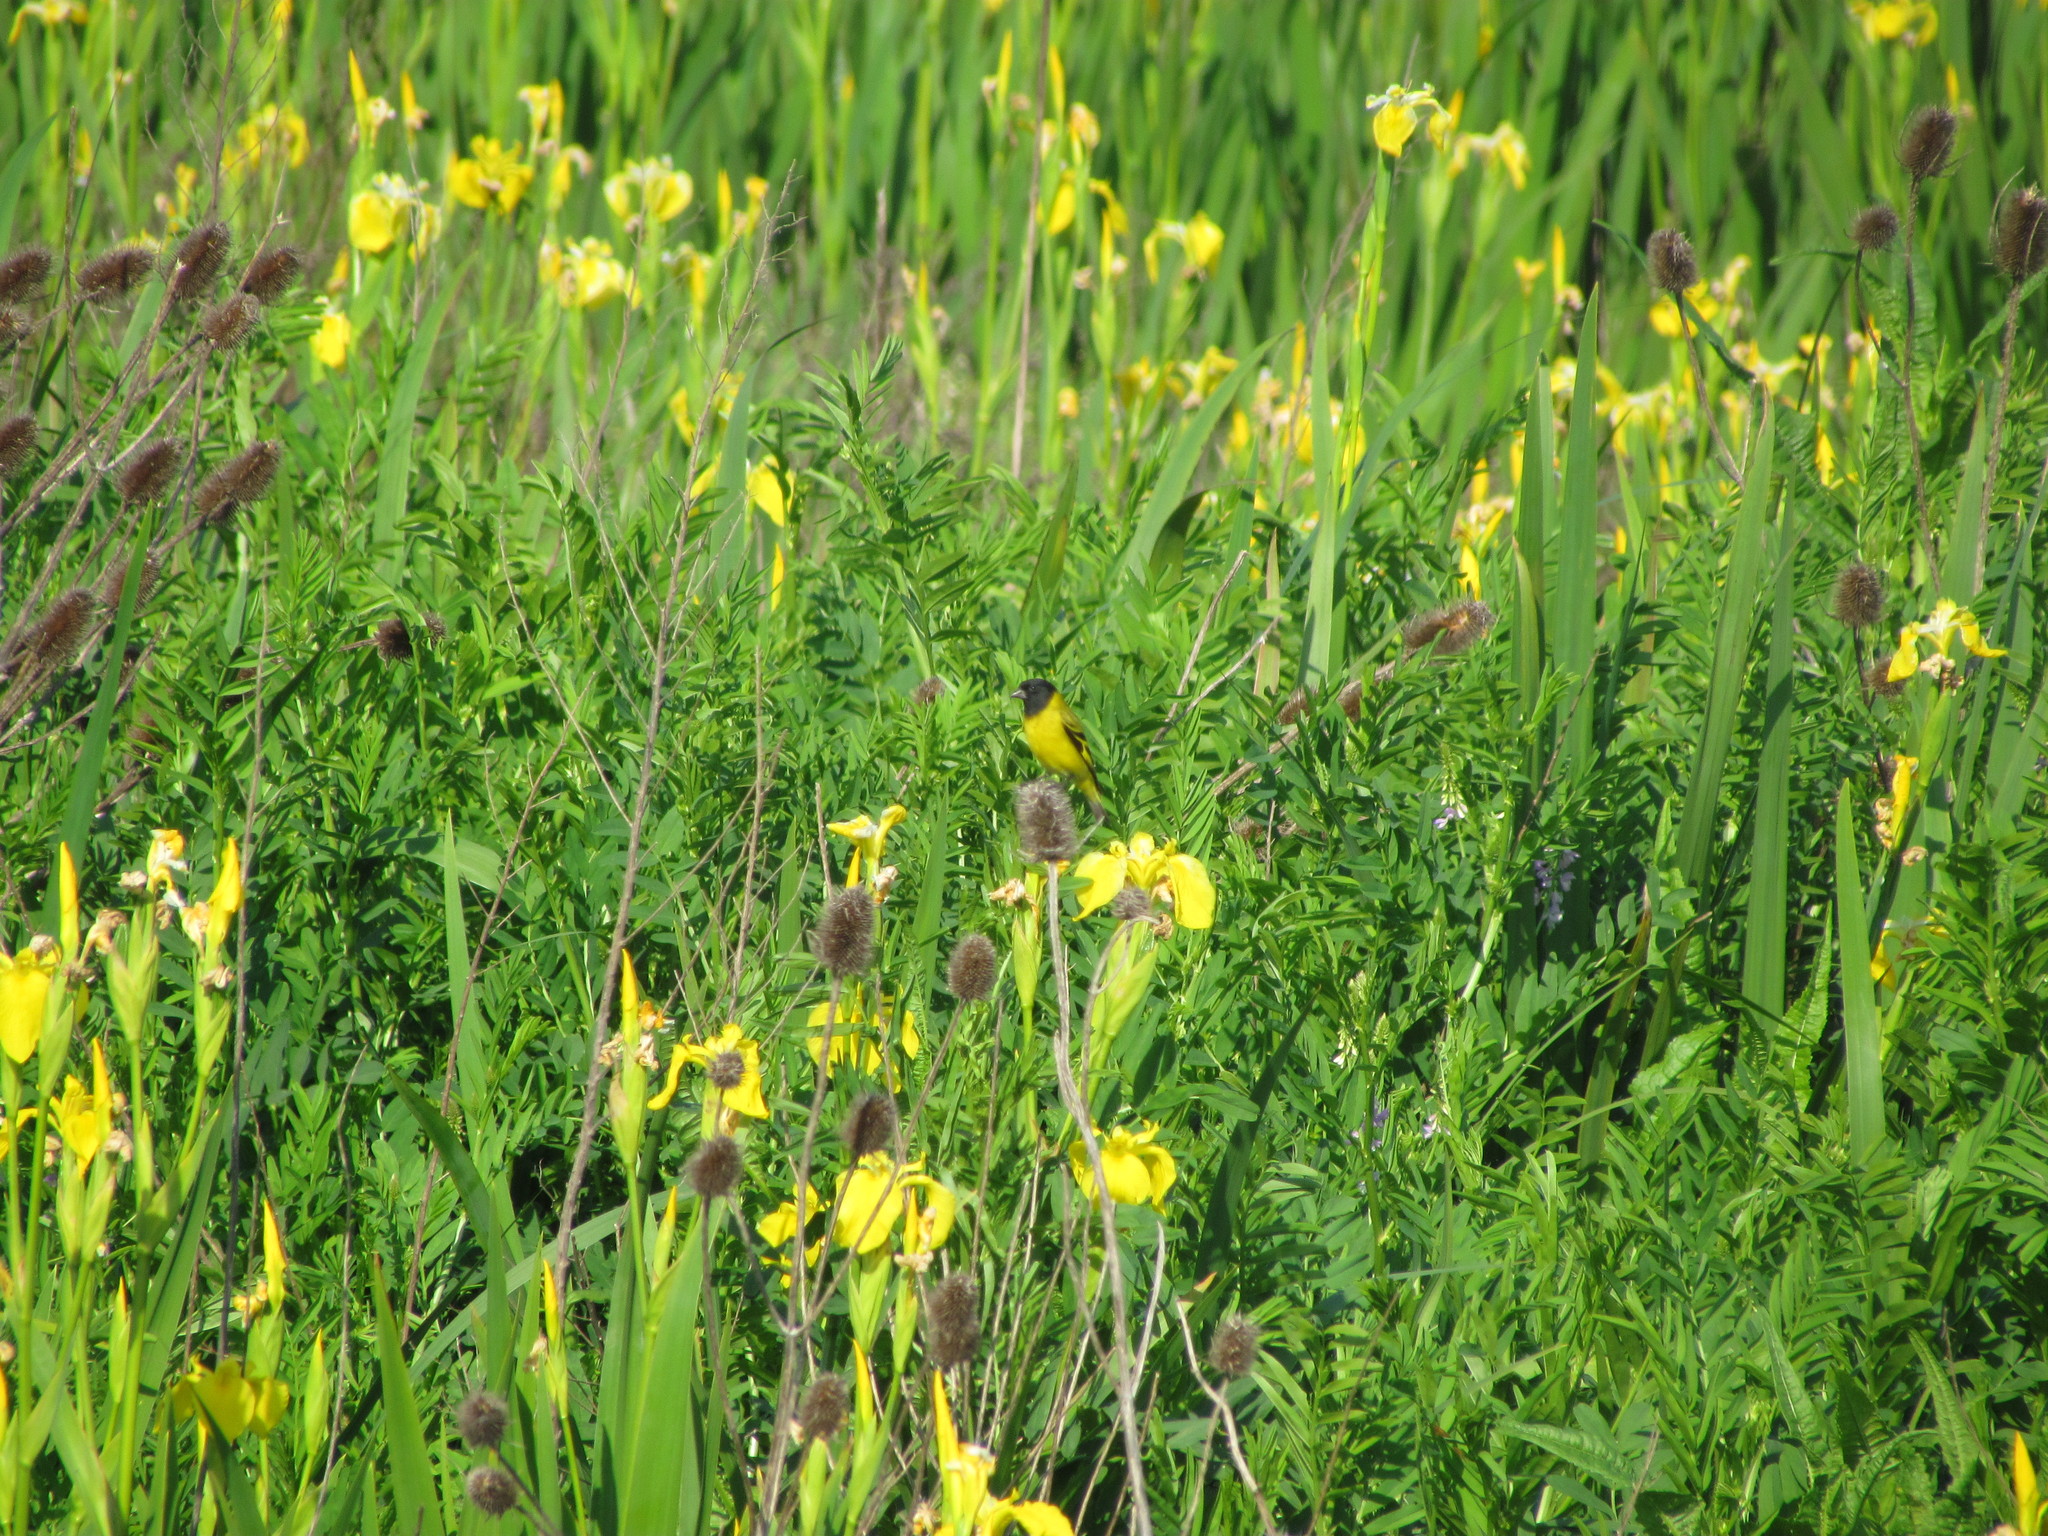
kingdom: Animalia
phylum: Chordata
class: Aves
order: Passeriformes
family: Fringillidae
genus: Spinus
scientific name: Spinus magellanicus
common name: Hooded siskin
